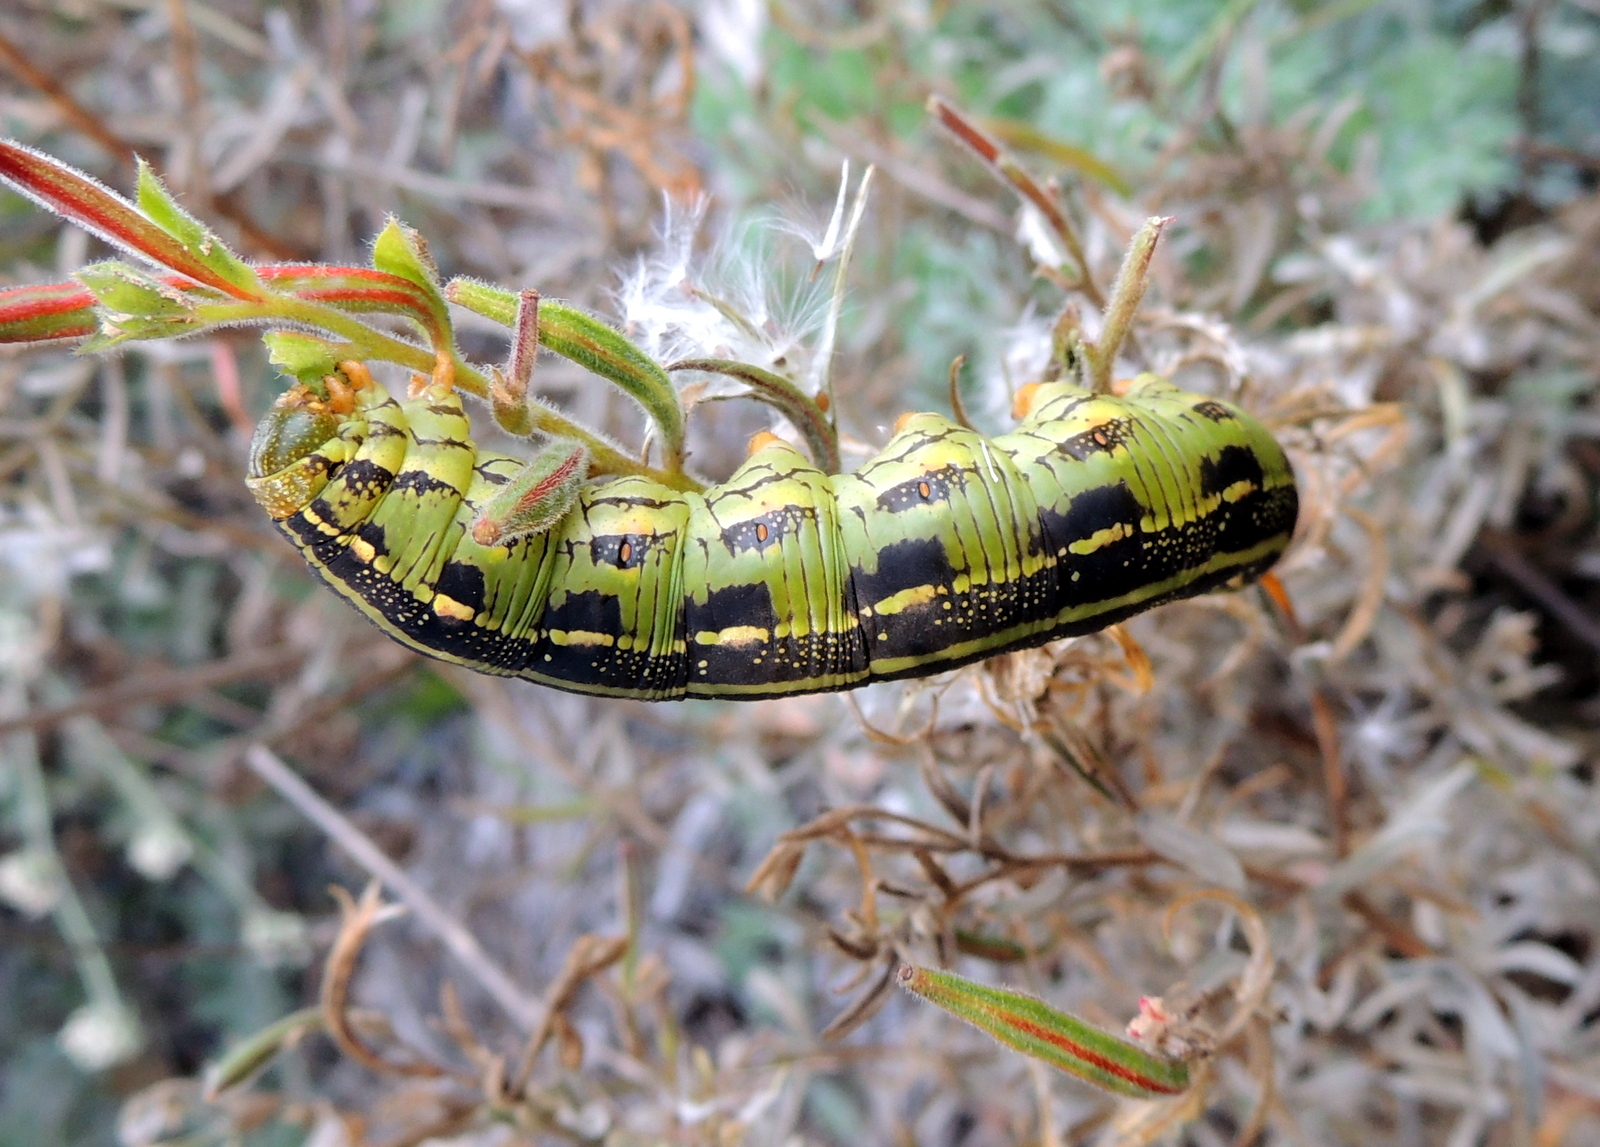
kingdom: Animalia
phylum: Arthropoda
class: Insecta
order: Lepidoptera
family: Sphingidae
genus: Hyles
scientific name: Hyles lineata
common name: White-lined sphinx
